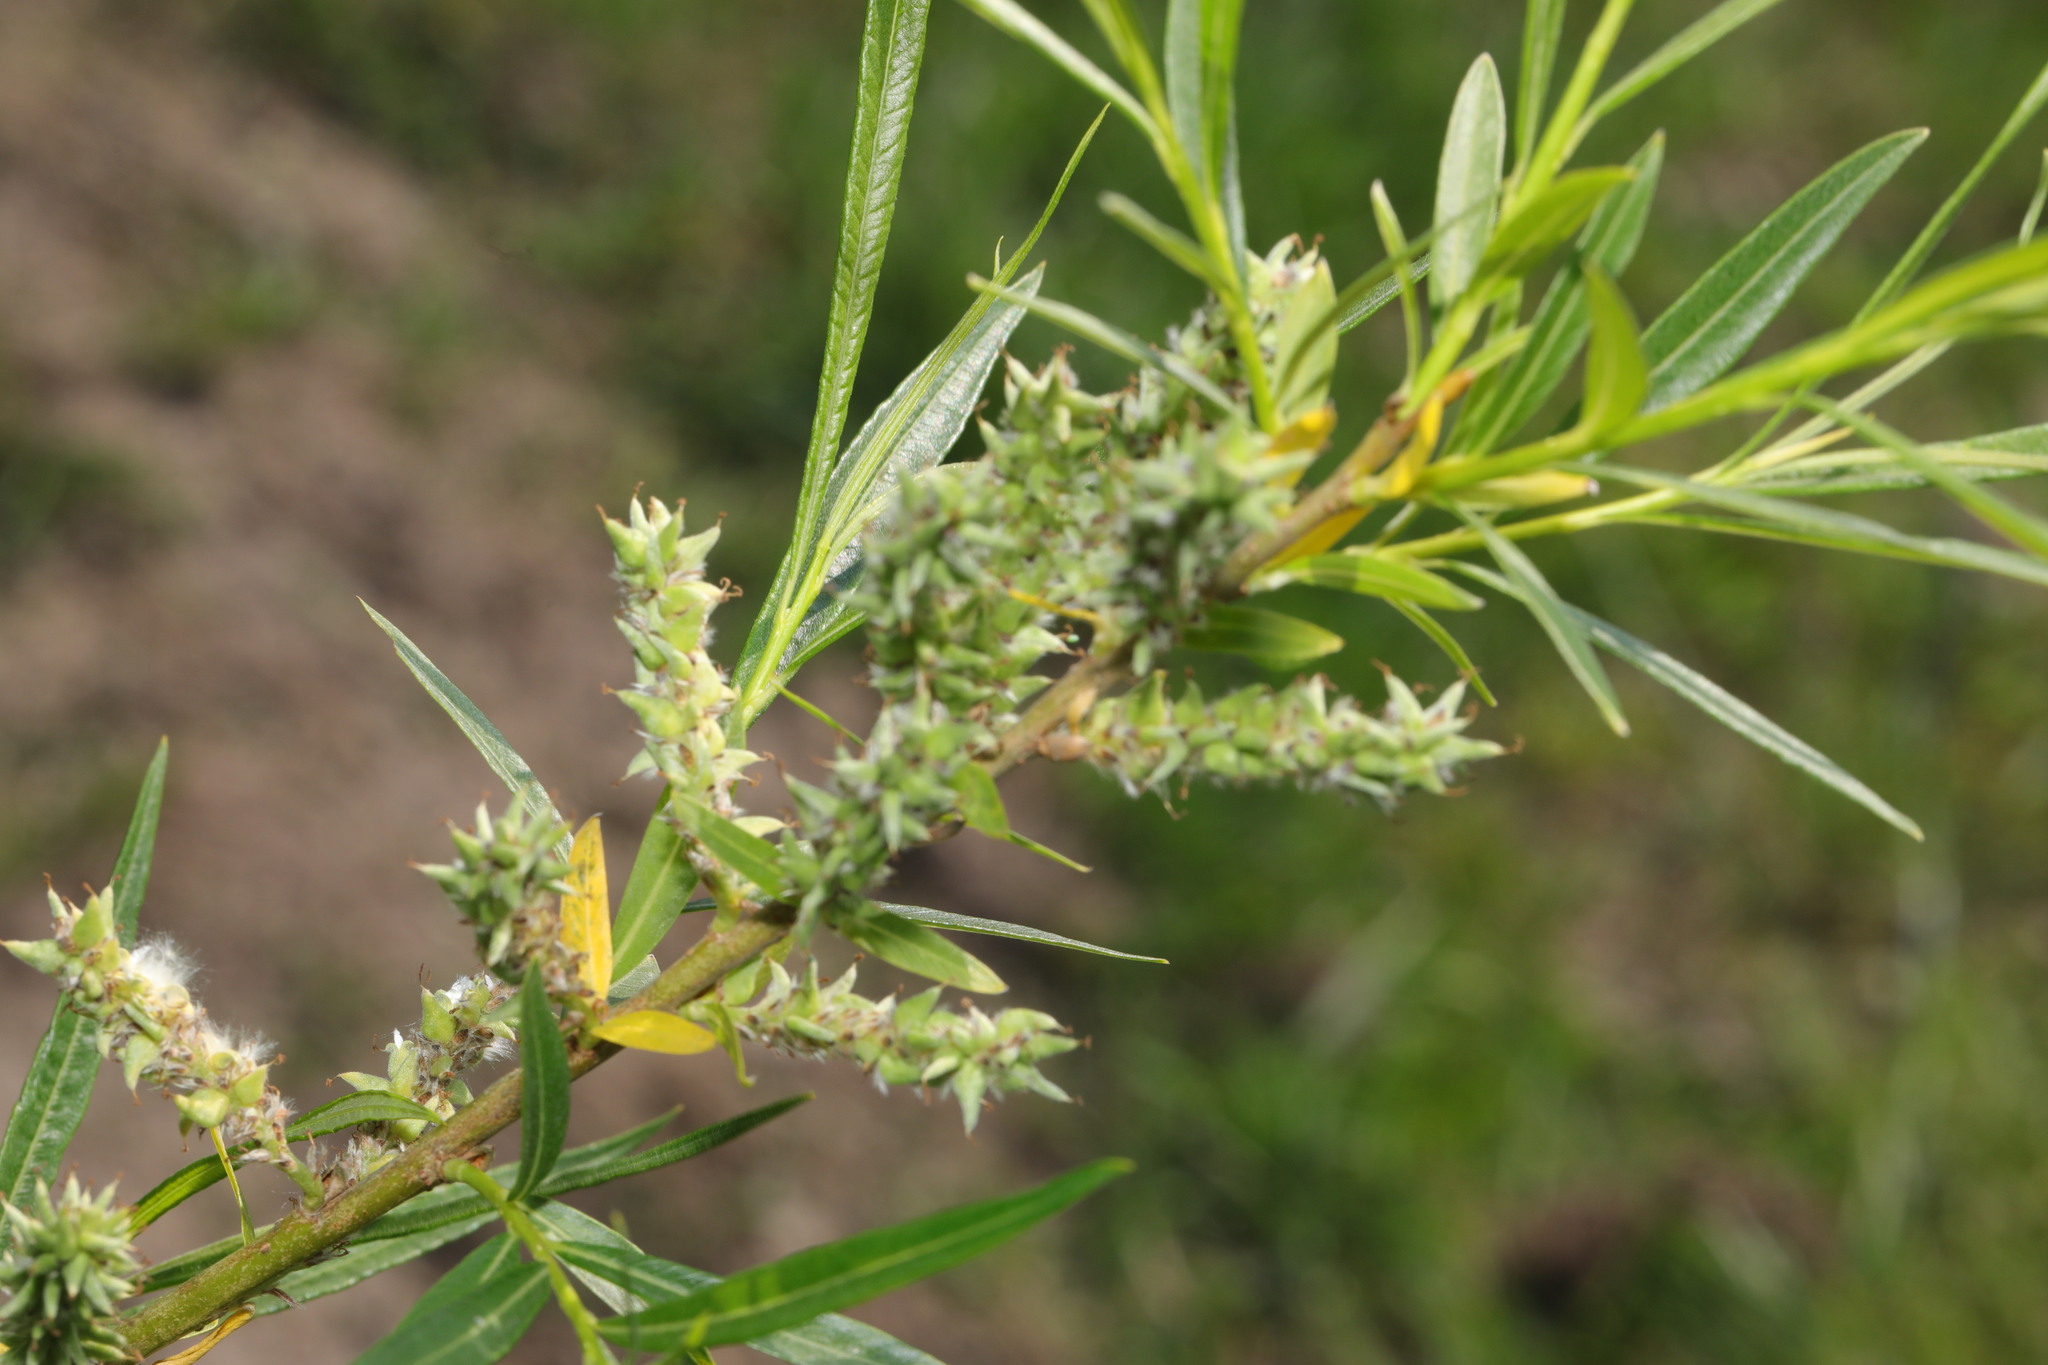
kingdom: Plantae
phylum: Tracheophyta
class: Magnoliopsida
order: Malpighiales
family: Salicaceae
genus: Salix
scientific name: Salix viminalis
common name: Osier
